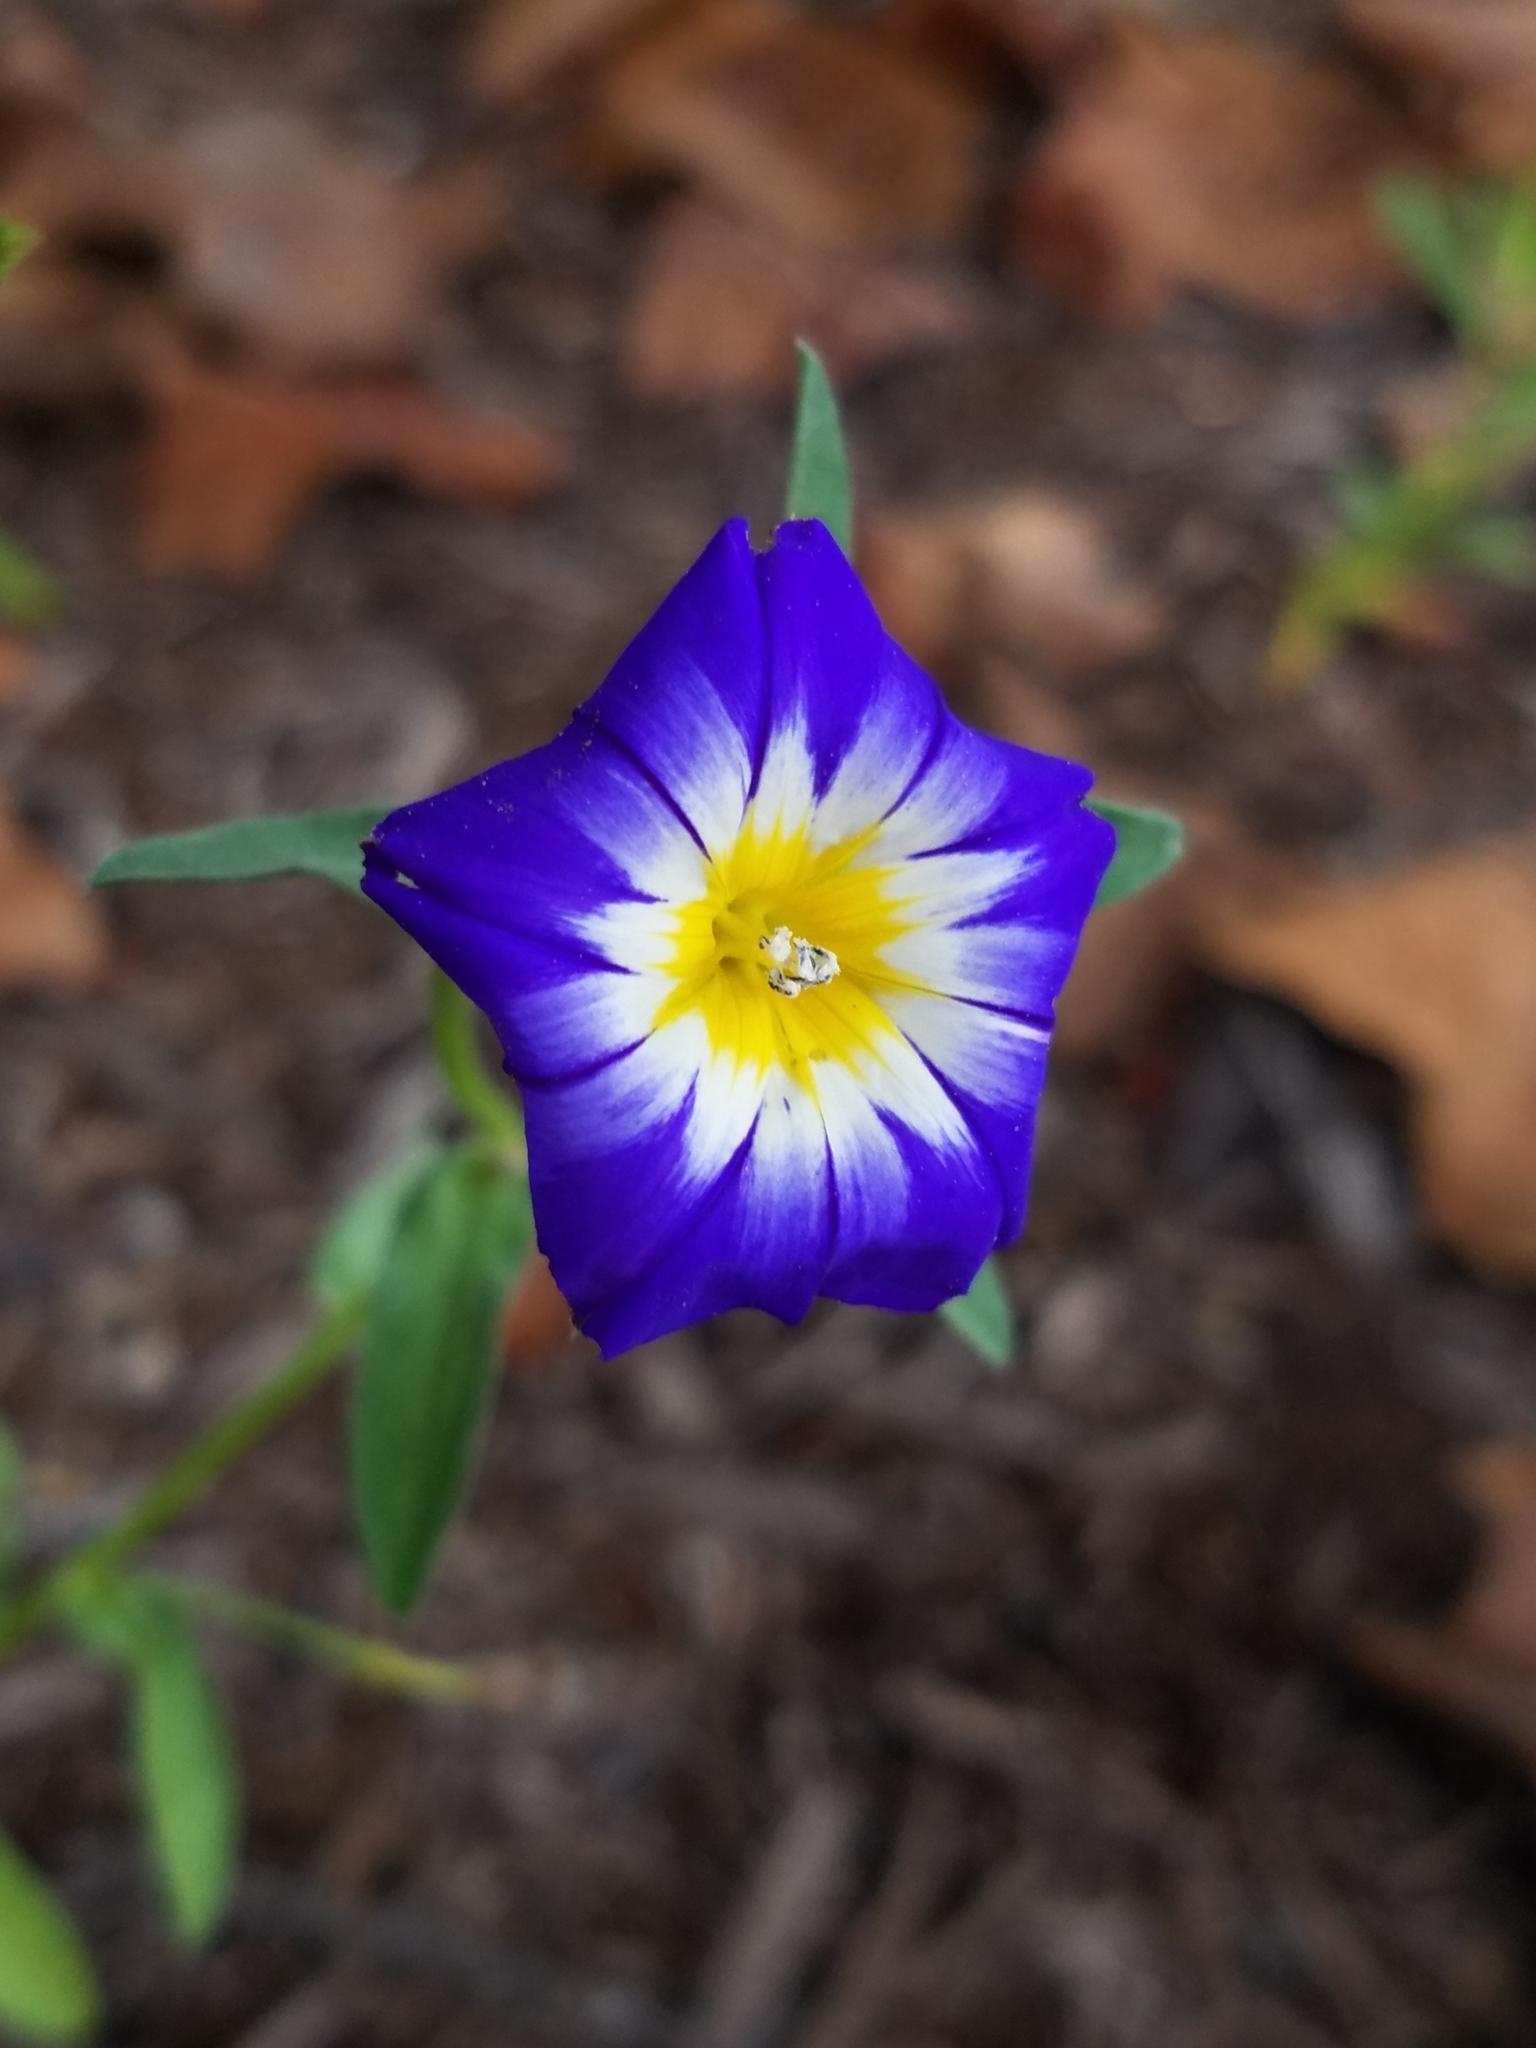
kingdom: Plantae
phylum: Tracheophyta
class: Magnoliopsida
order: Solanales
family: Convolvulaceae
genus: Convolvulus
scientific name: Convolvulus tricolor
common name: Dwarf morning-glory
